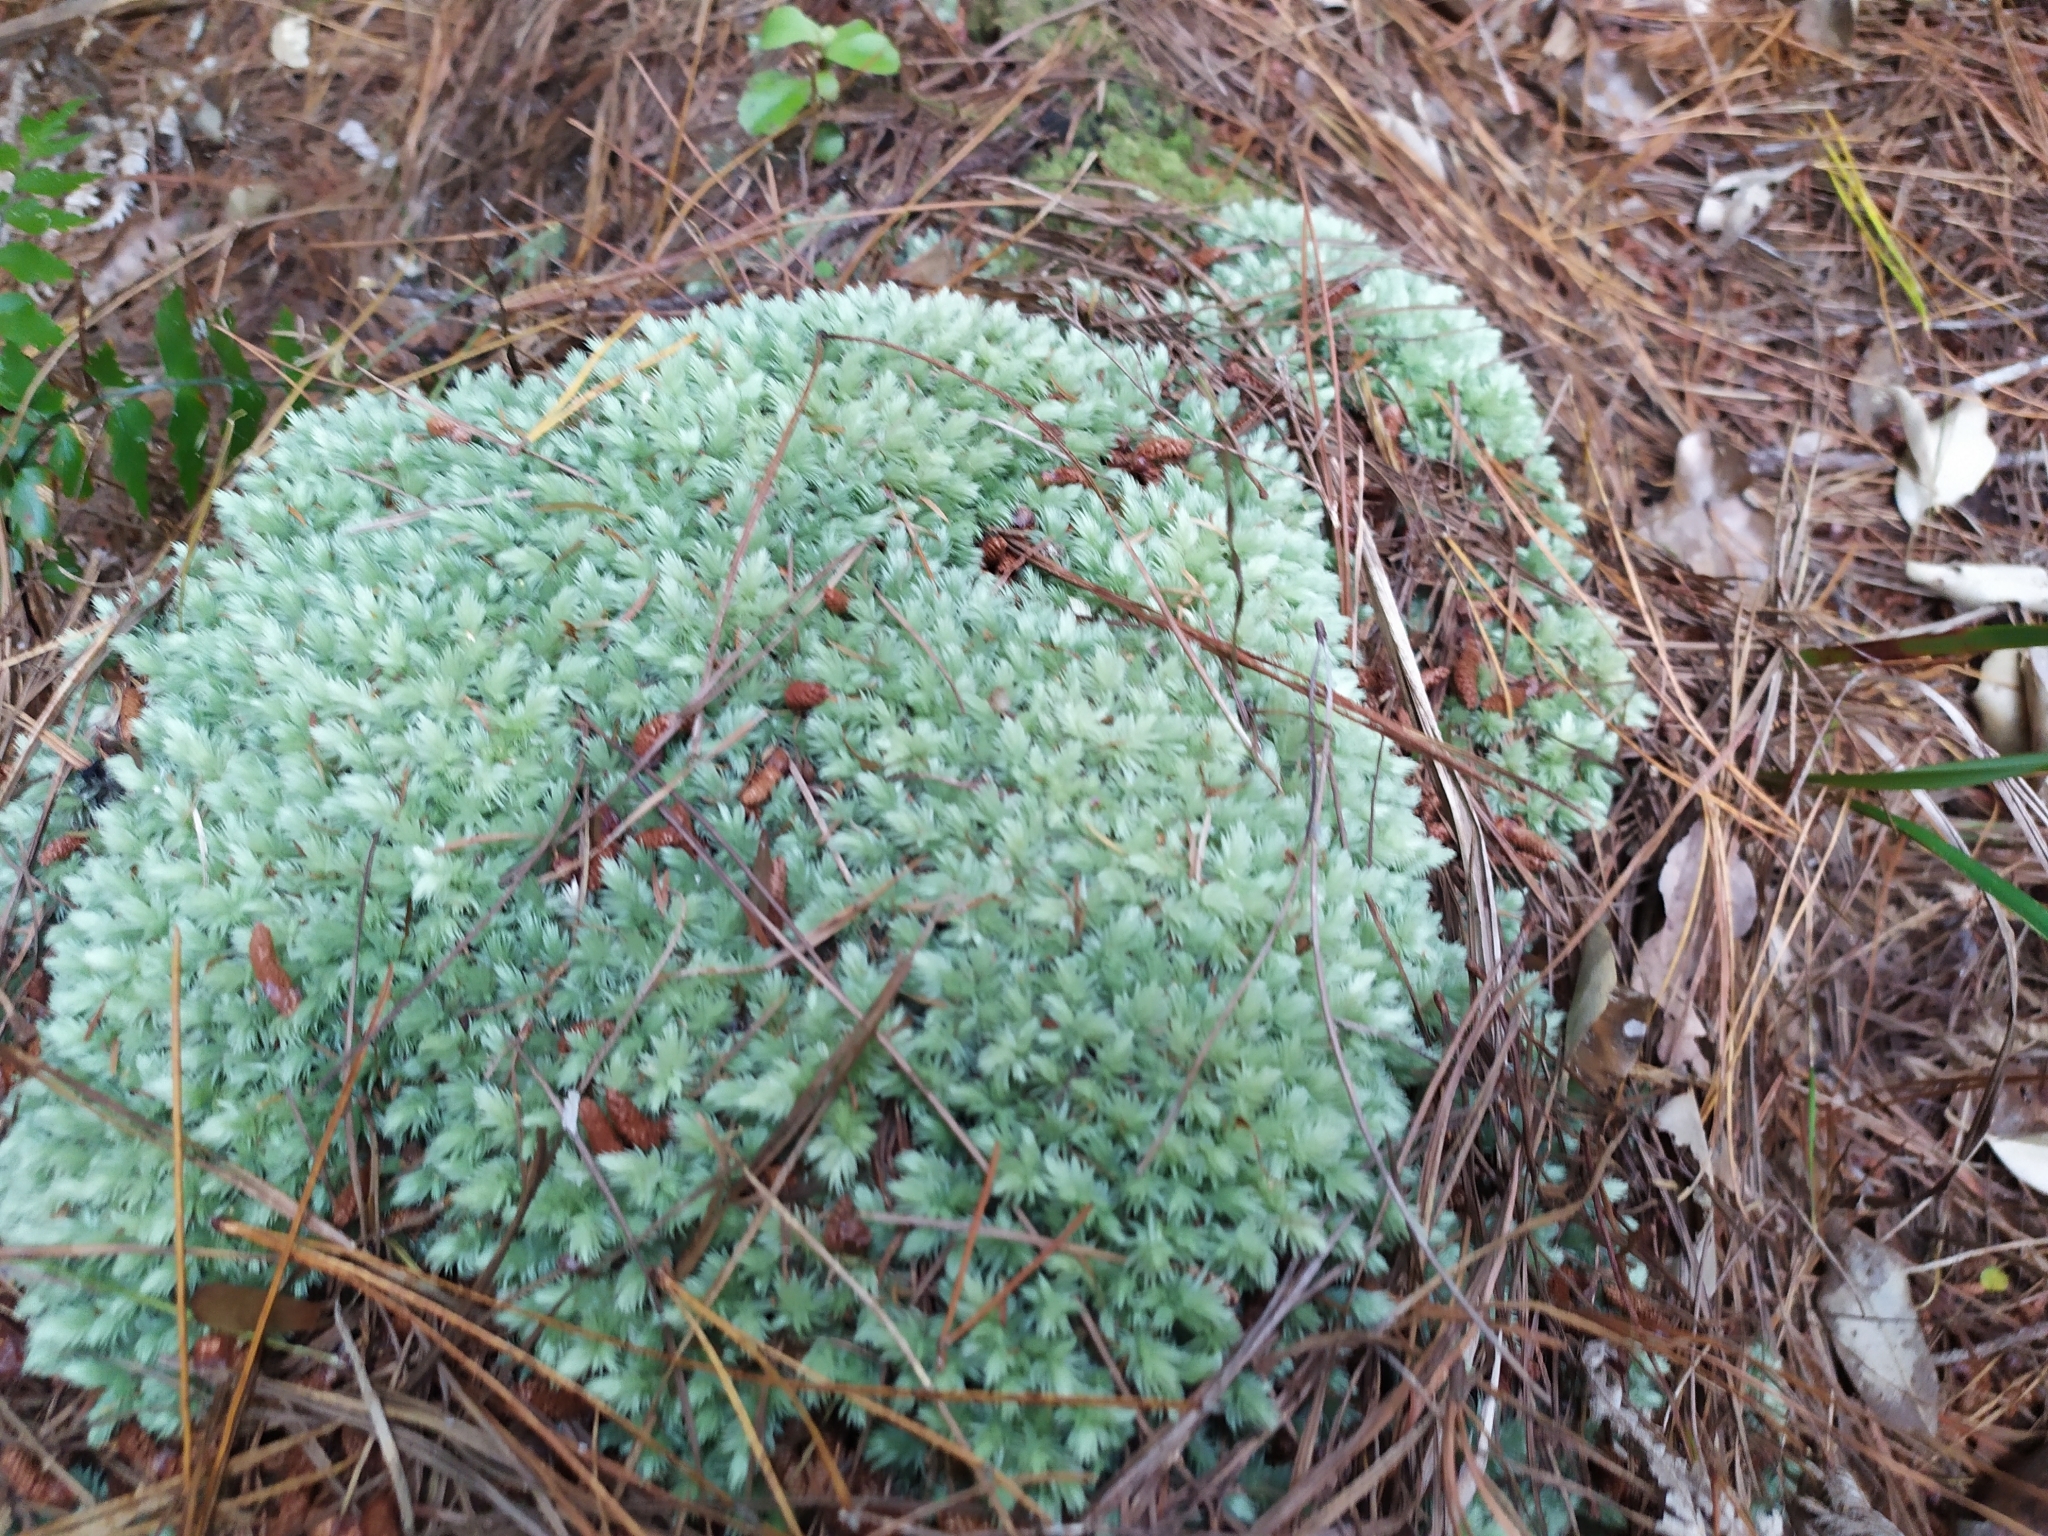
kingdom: Plantae
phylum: Bryophyta
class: Bryopsida
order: Dicranales
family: Leucobryaceae
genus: Leucobryum
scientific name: Leucobryum javense
